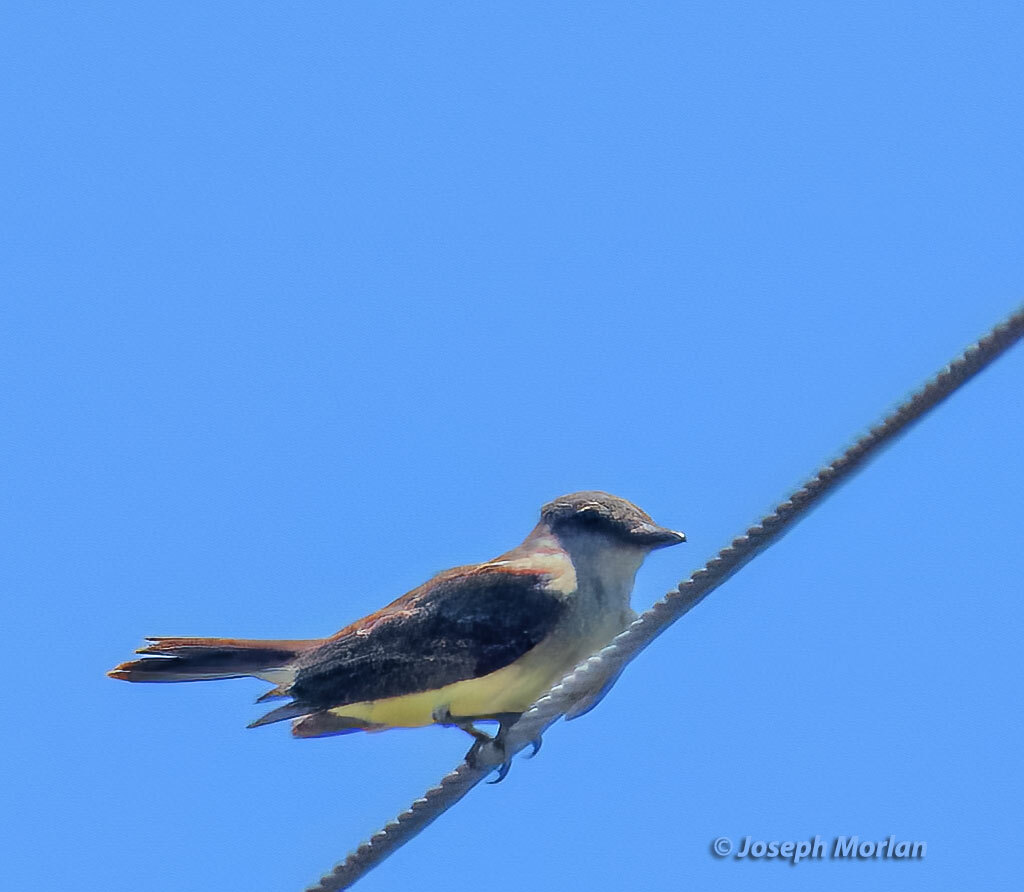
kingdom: Animalia
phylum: Chordata
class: Aves
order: Passeriformes
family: Tyrannidae
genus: Tyrannus
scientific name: Tyrannus melancholicus
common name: Tropical kingbird
